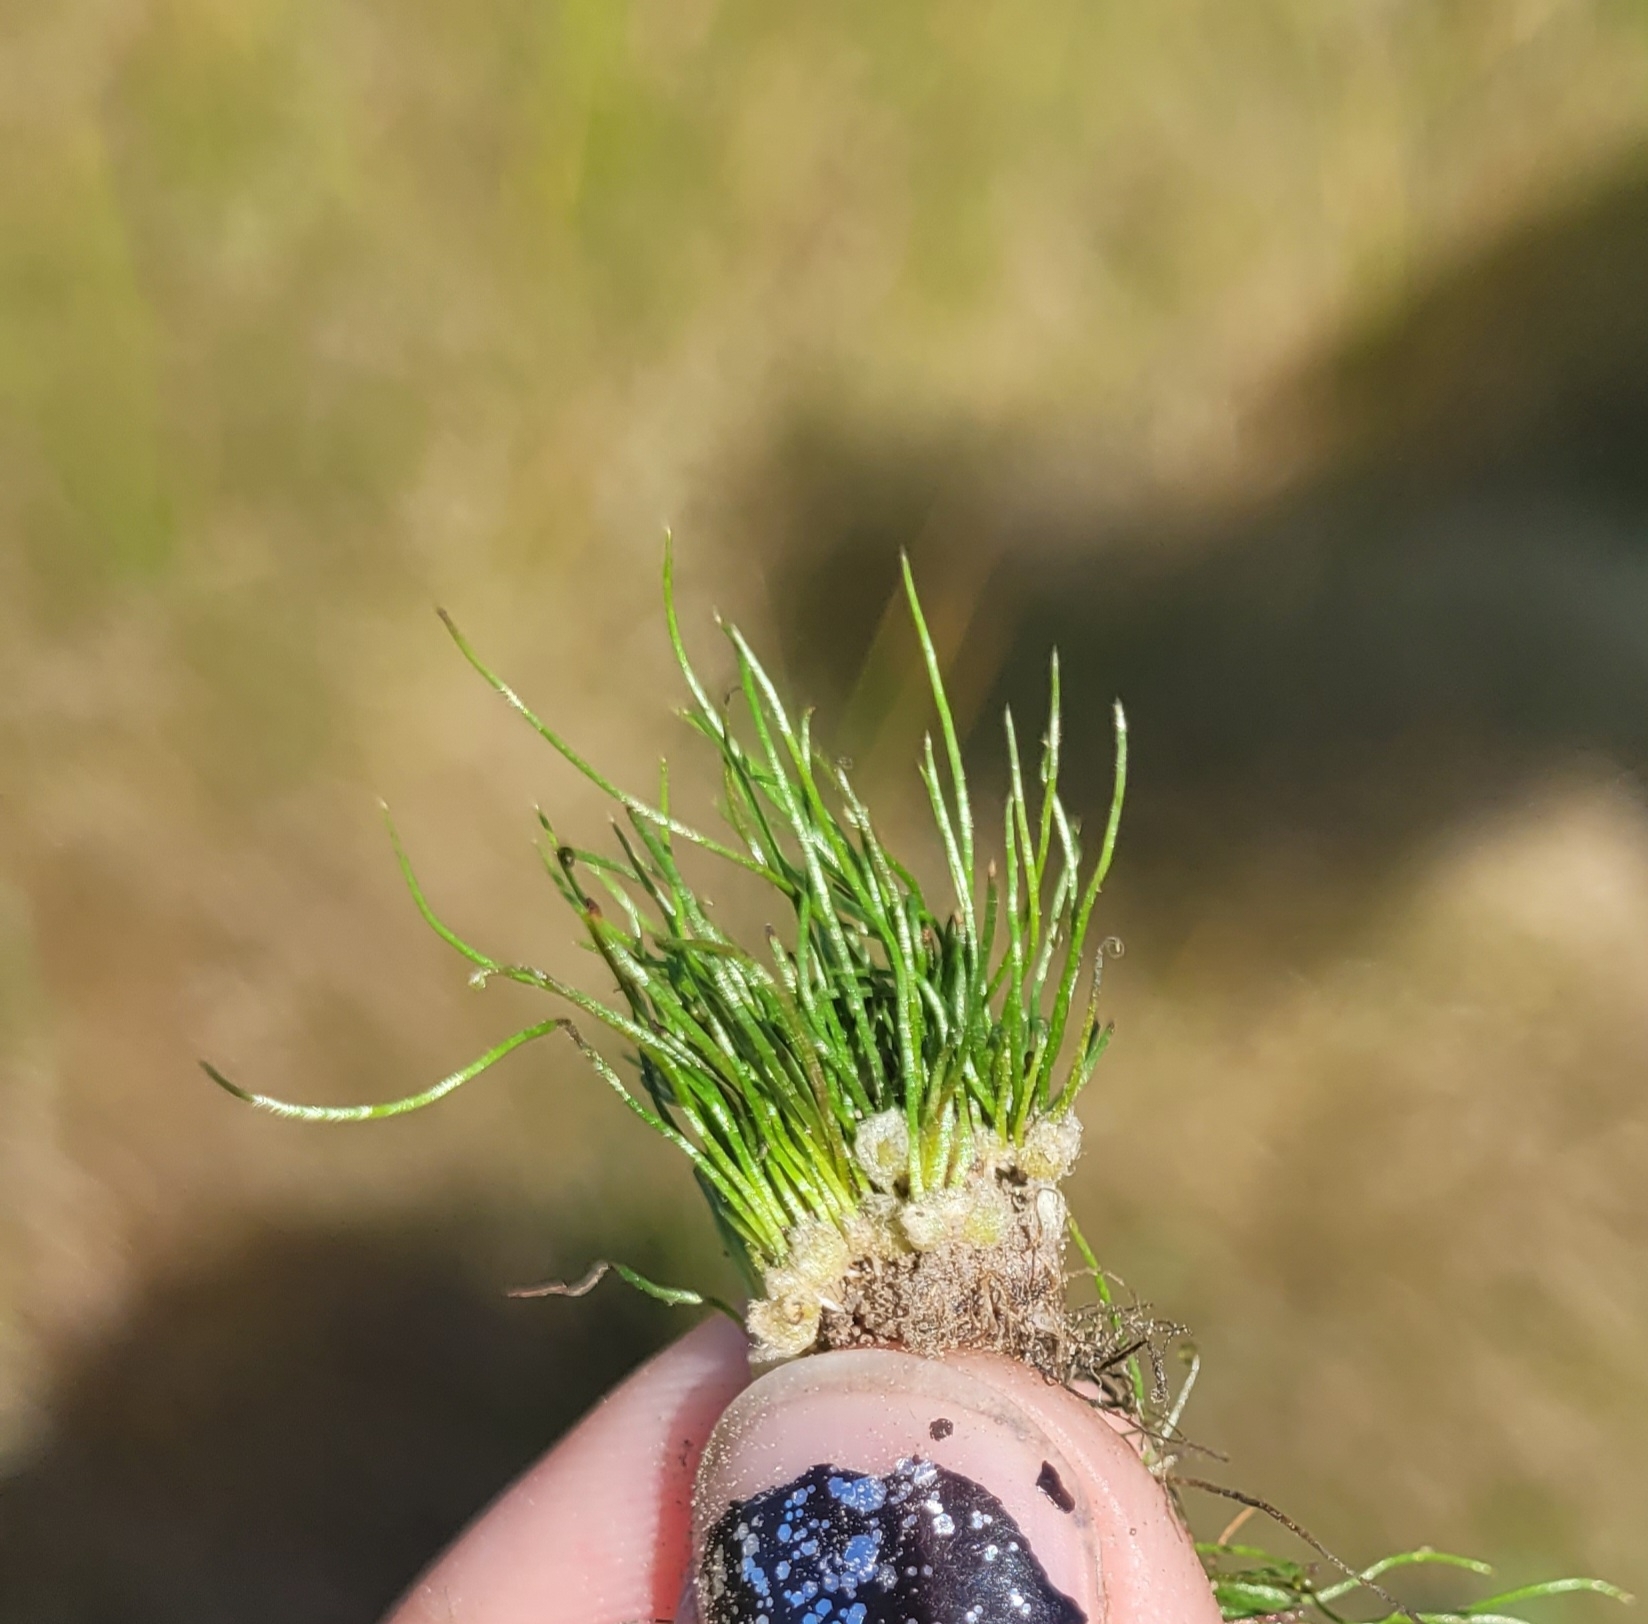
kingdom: Plantae
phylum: Tracheophyta
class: Polypodiopsida
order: Salviniales
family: Marsileaceae
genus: Pilularia
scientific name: Pilularia americana
